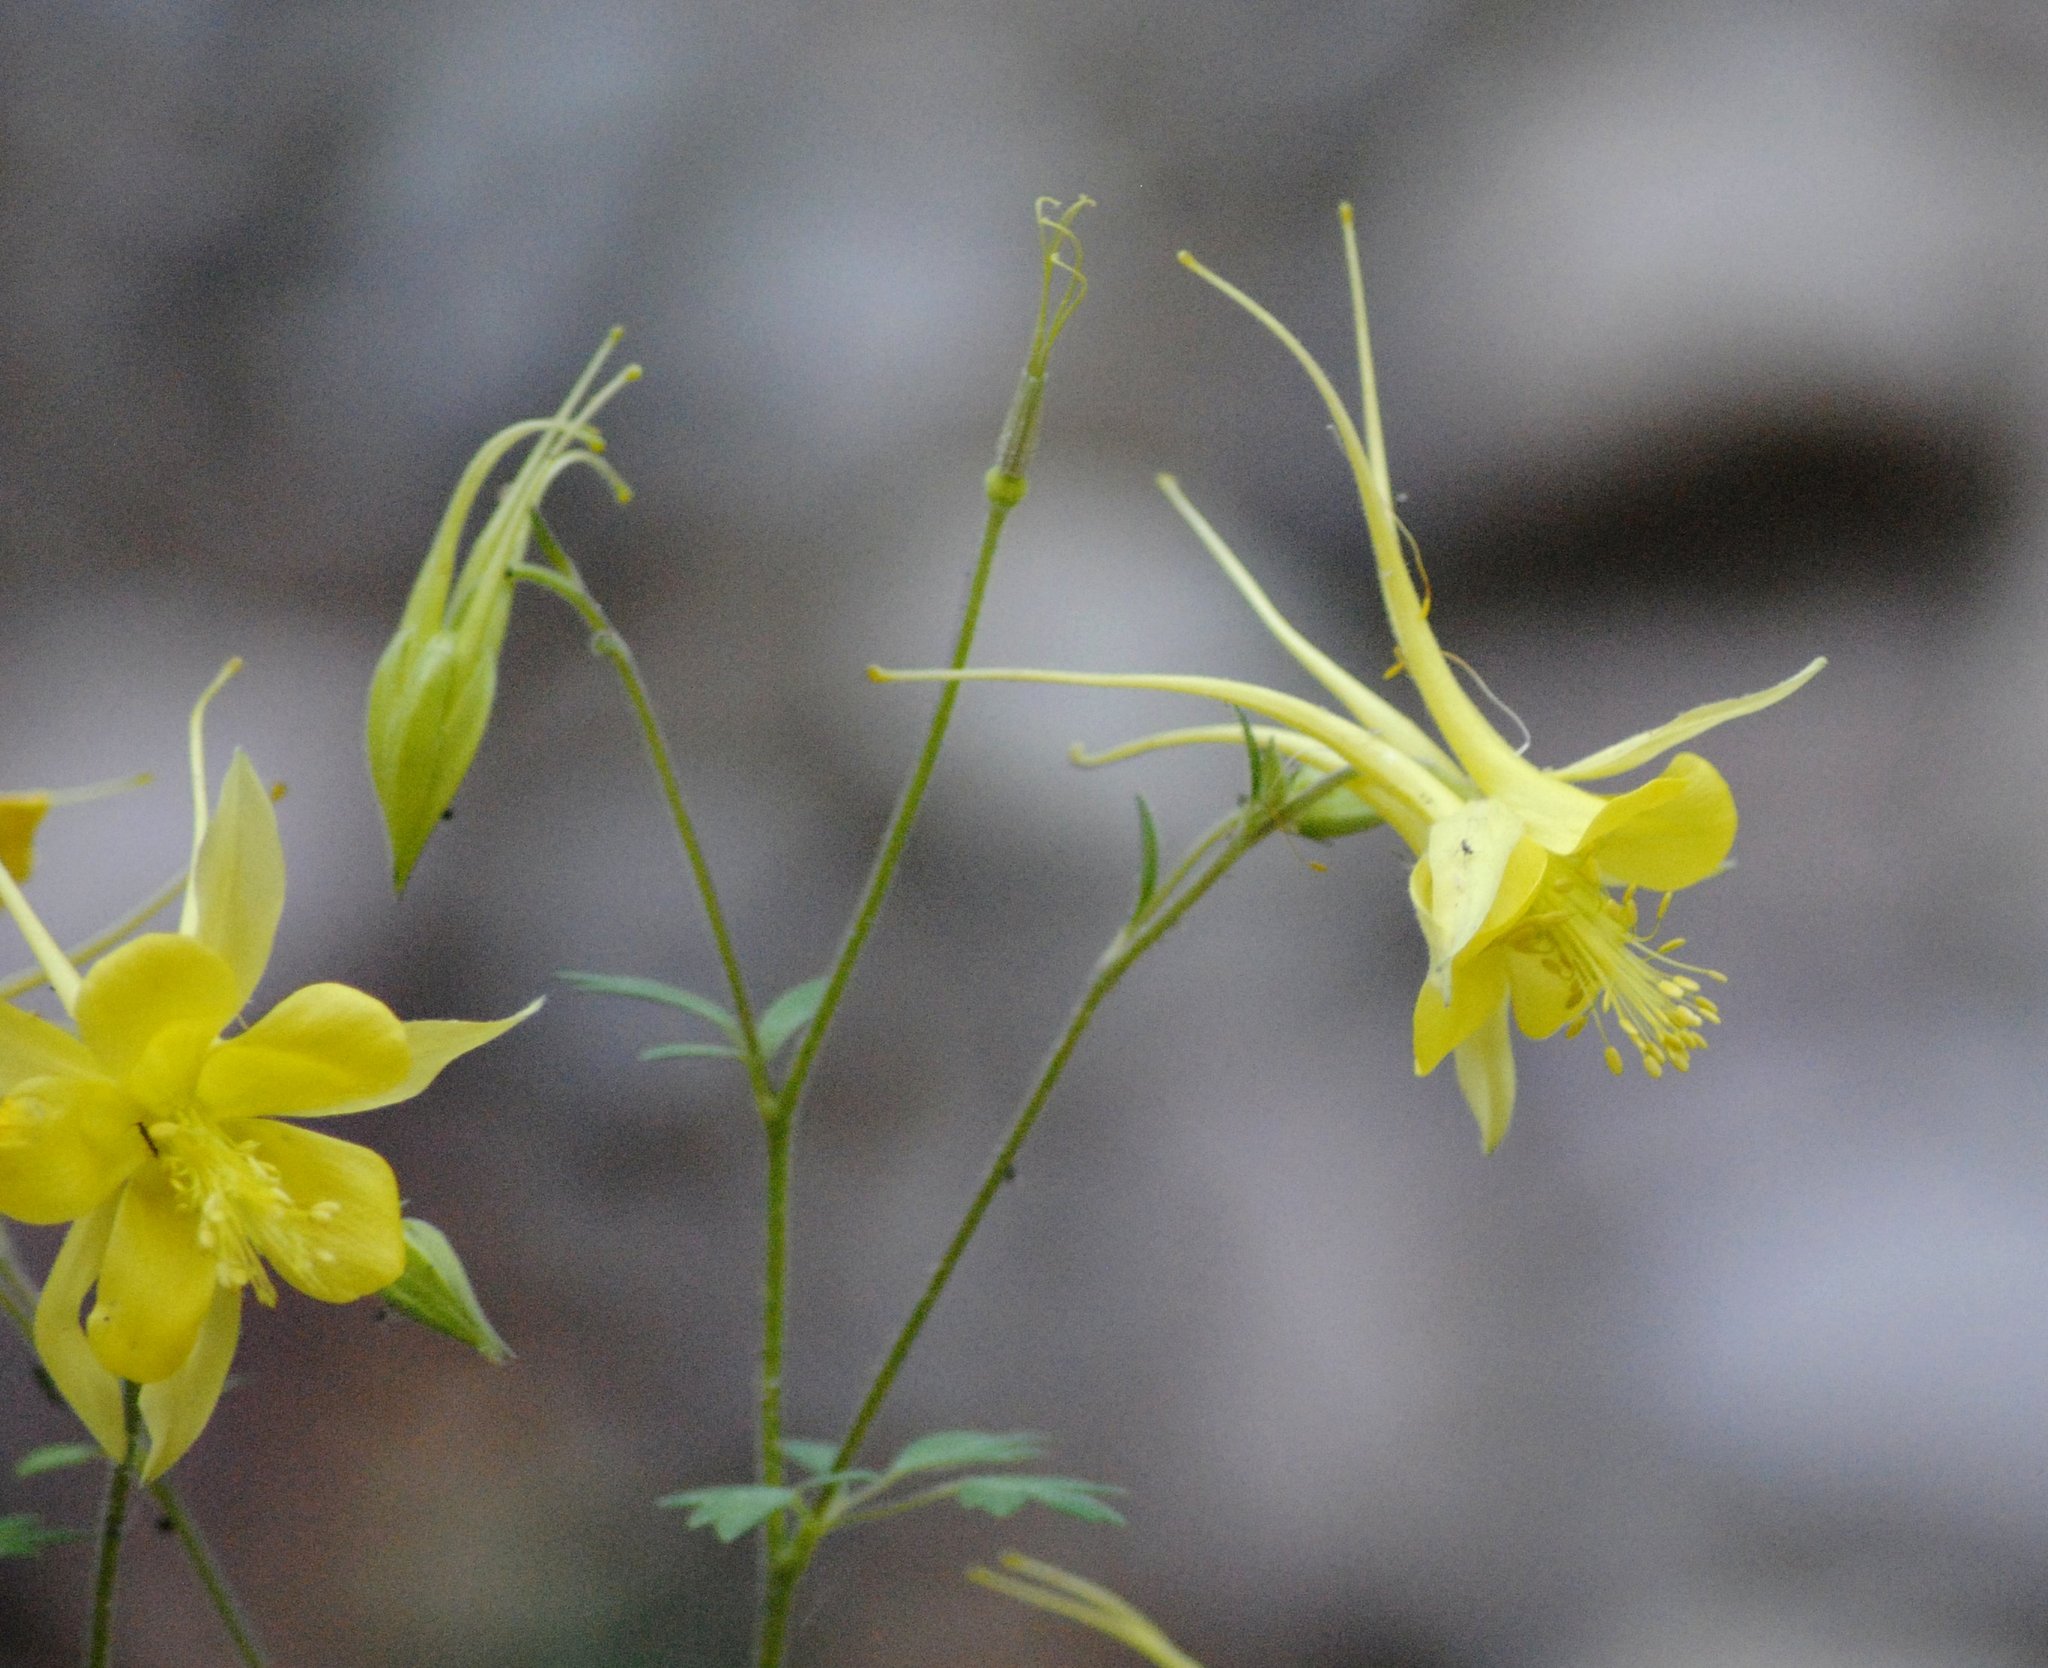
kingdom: Plantae
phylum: Tracheophyta
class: Magnoliopsida
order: Ranunculales
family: Ranunculaceae
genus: Aquilegia
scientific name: Aquilegia chrysantha
